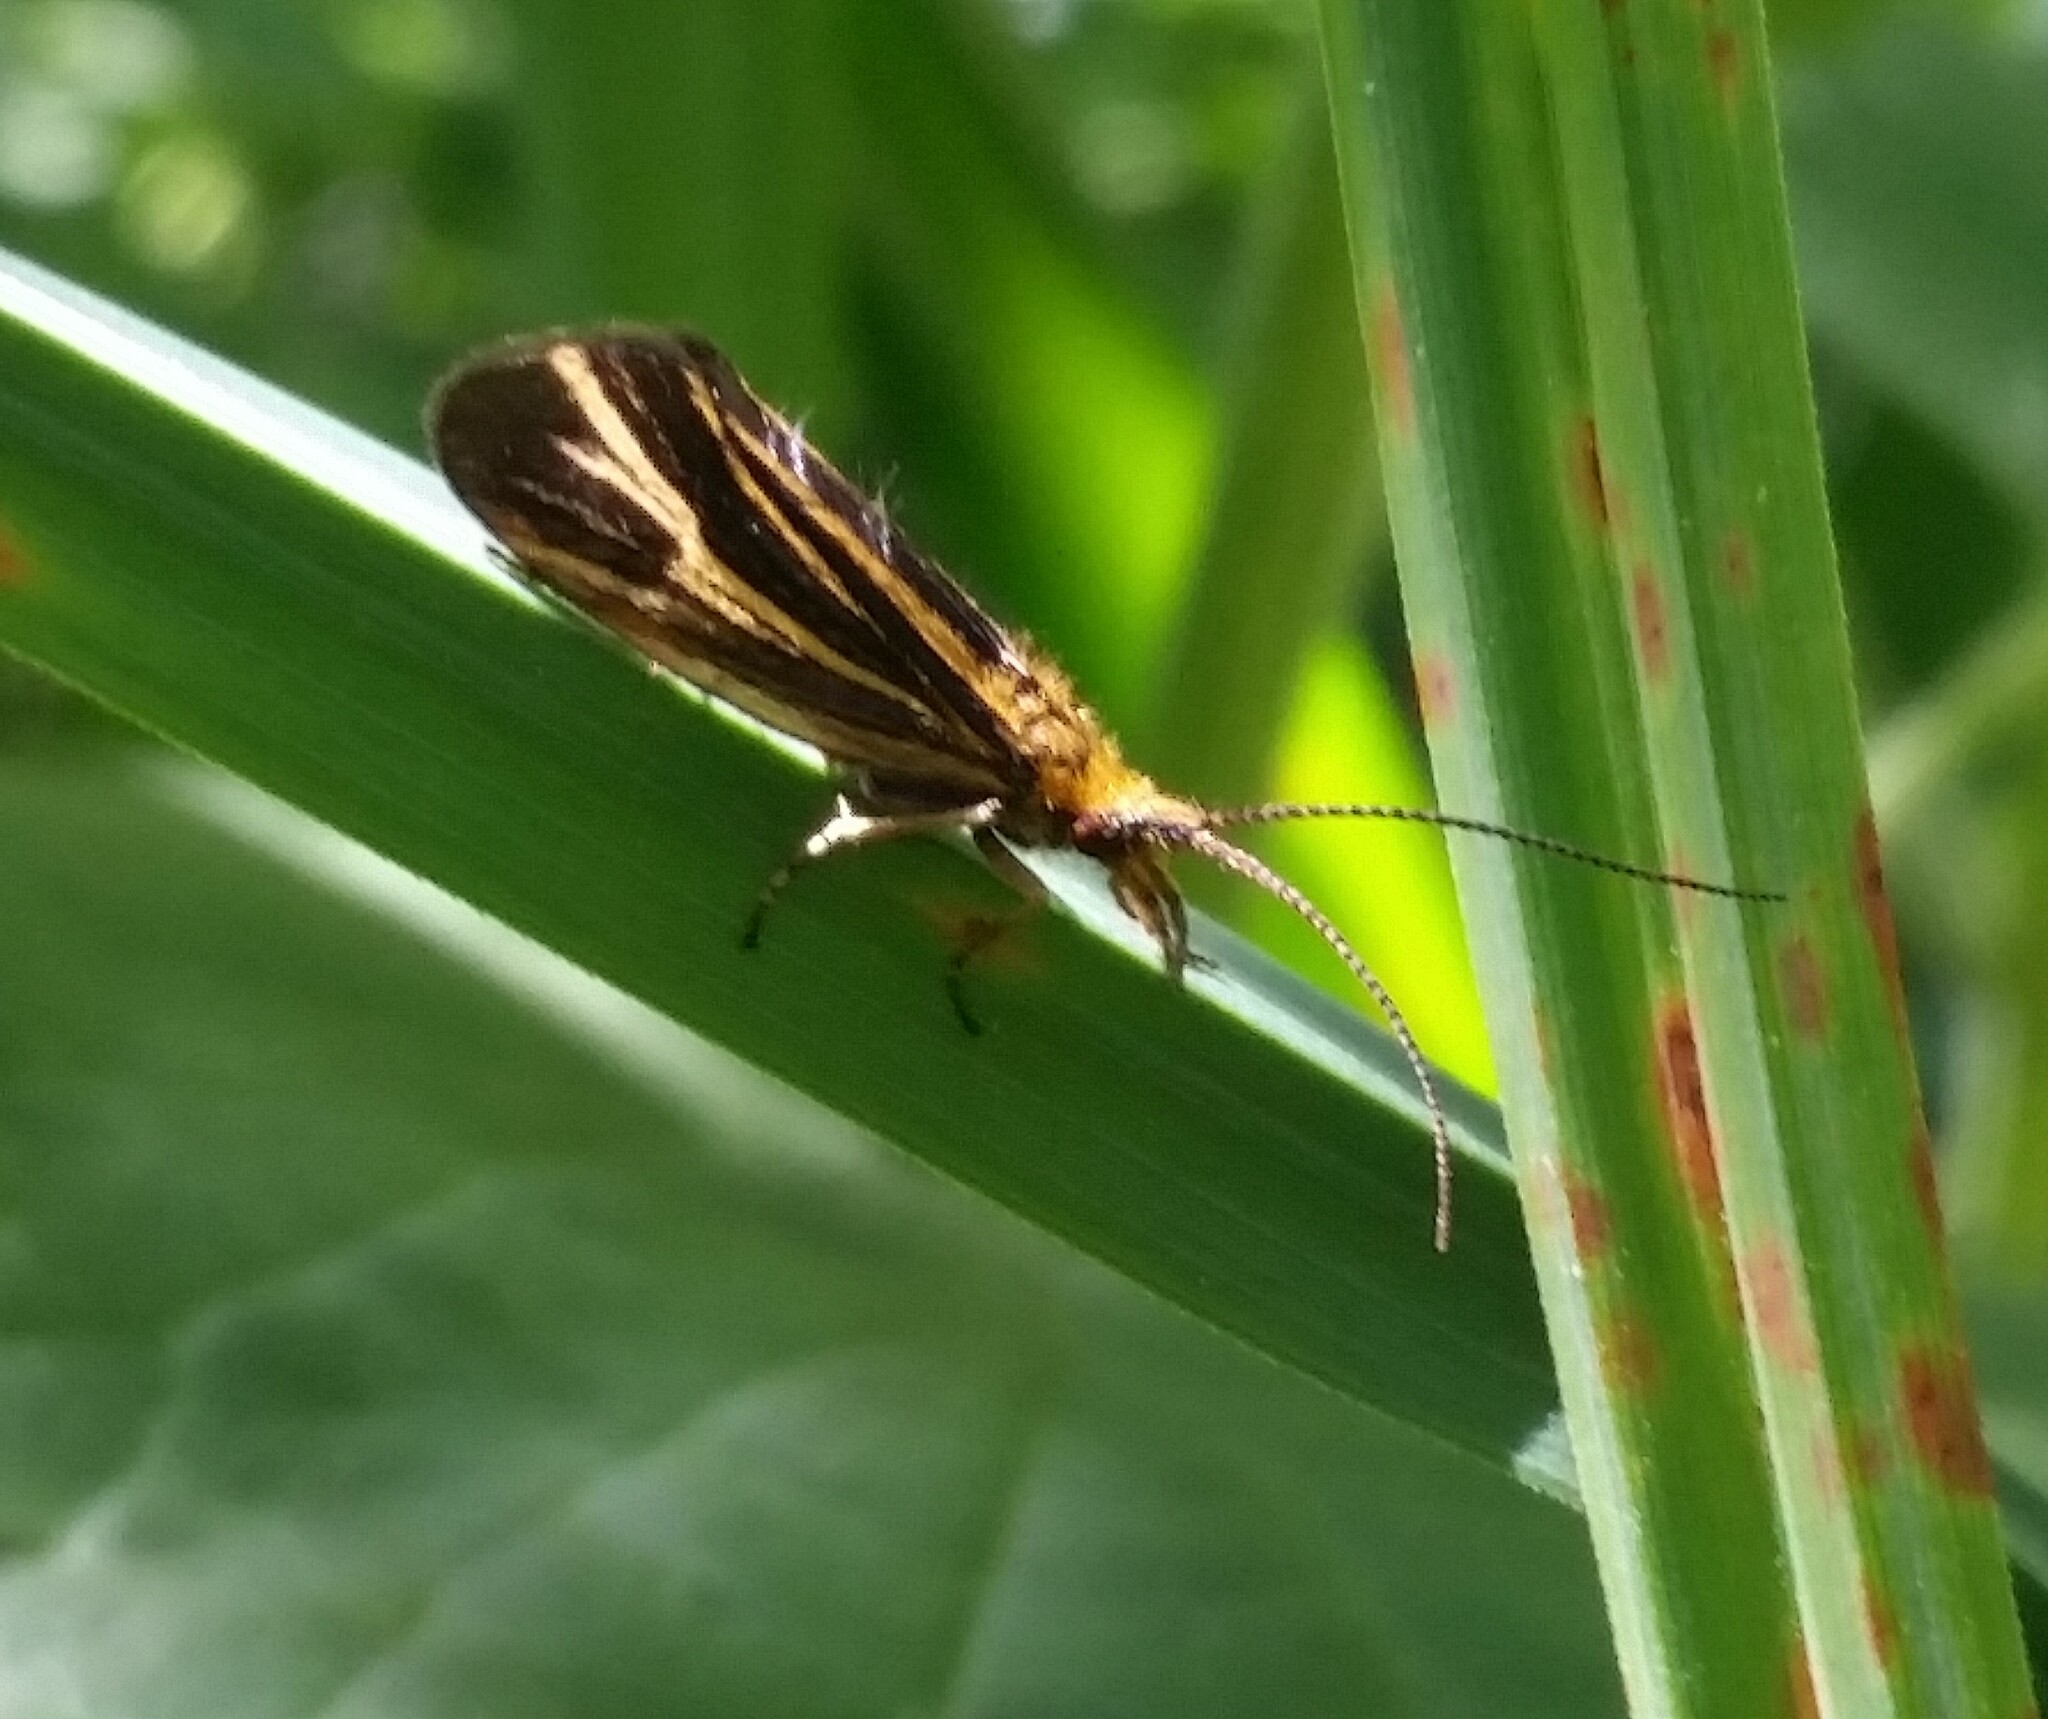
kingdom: Animalia
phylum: Arthropoda
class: Insecta
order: Trichoptera
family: Odontoceridae
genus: Nerophilus
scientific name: Nerophilus californicus
